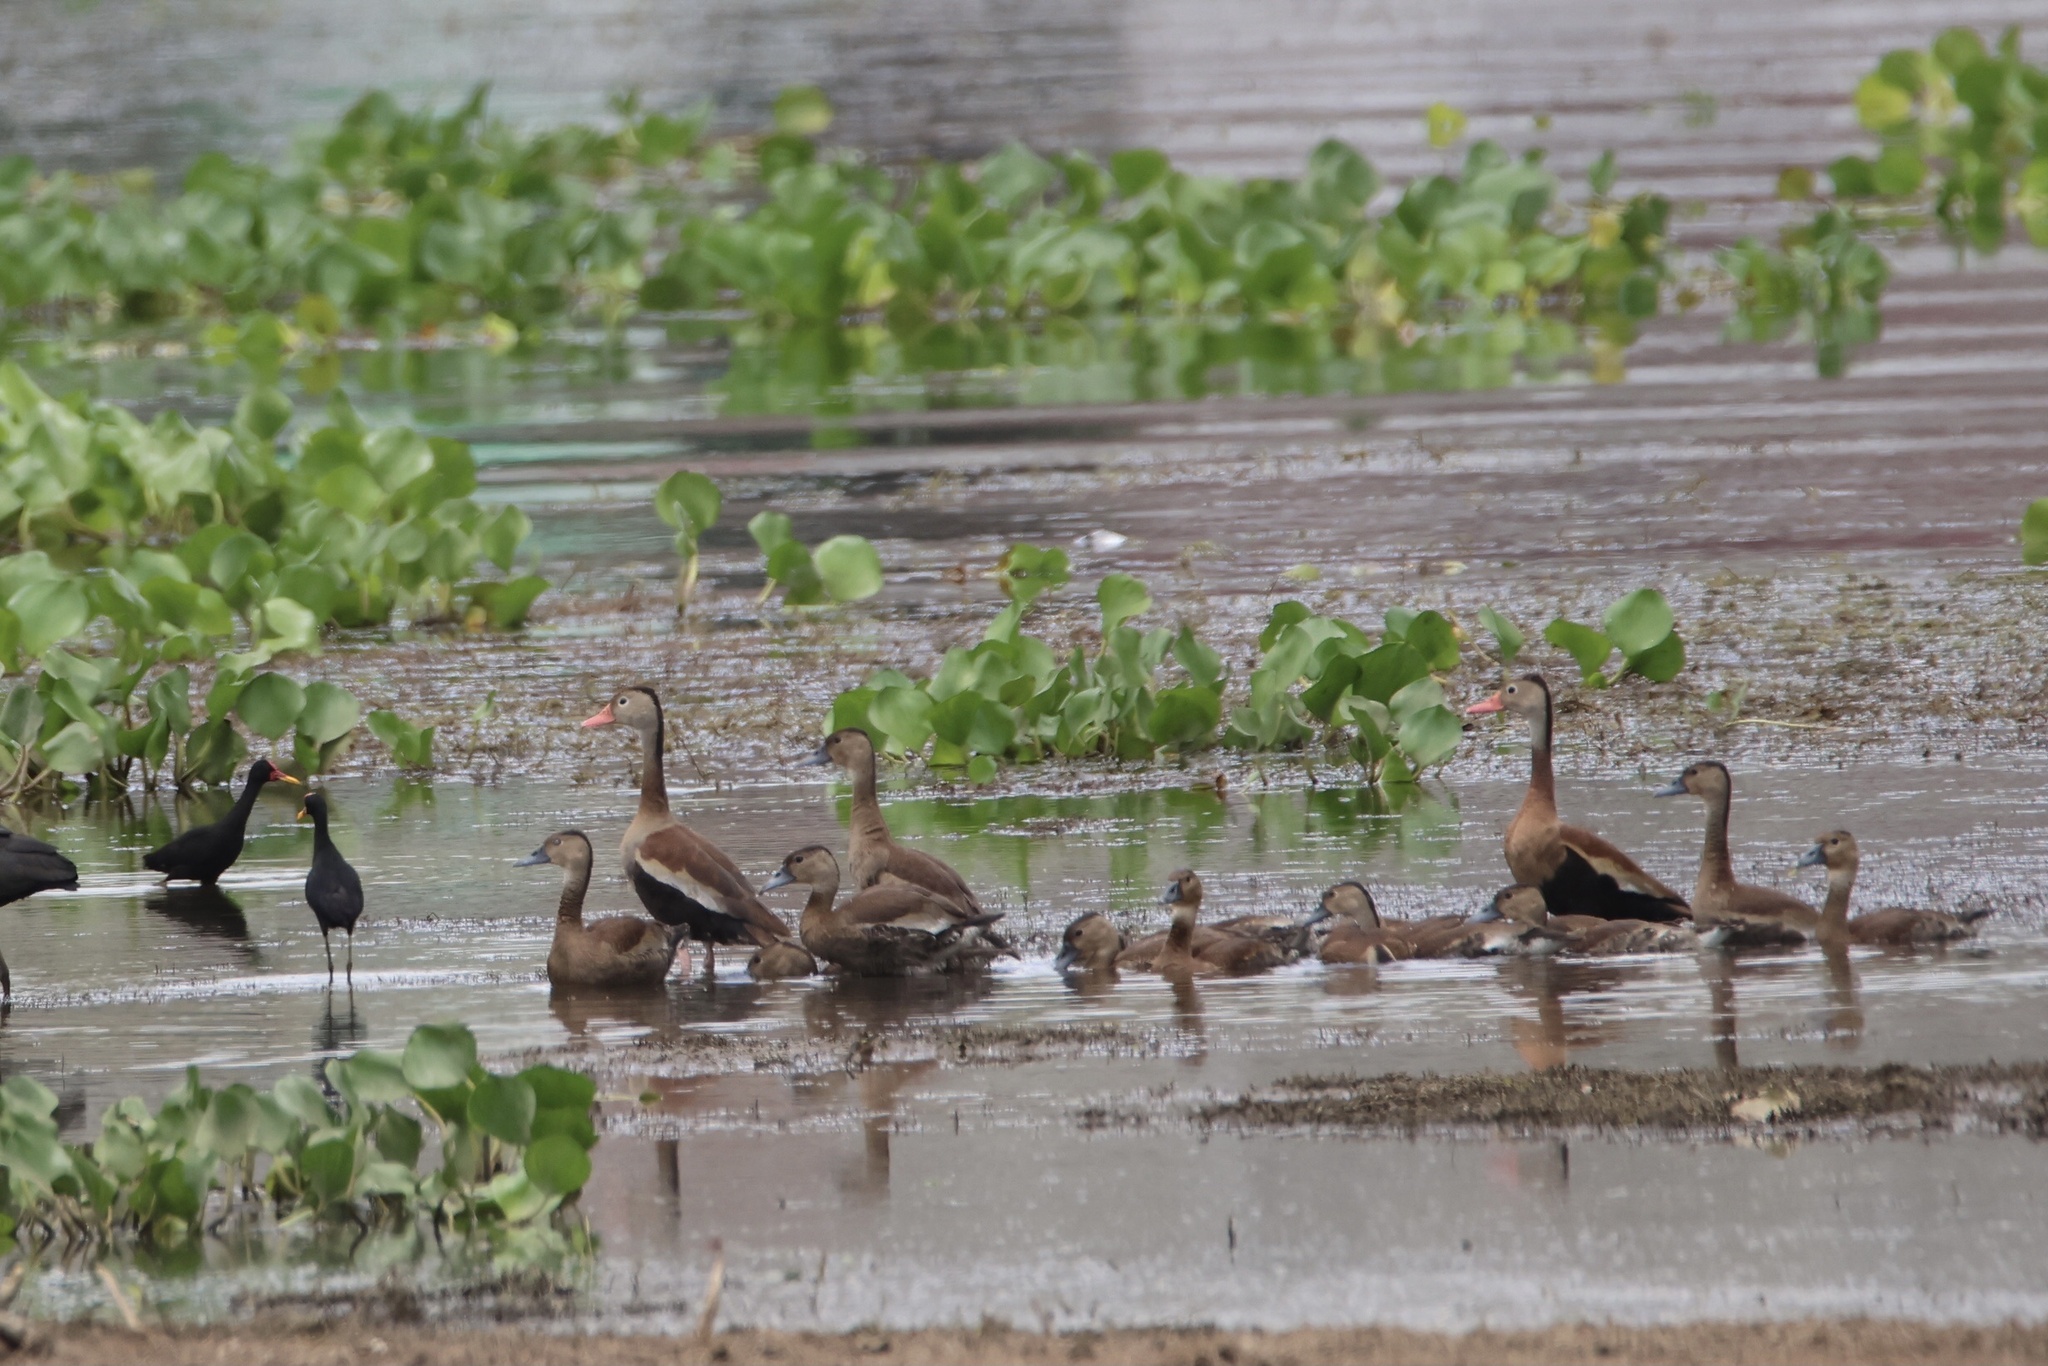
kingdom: Animalia
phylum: Chordata
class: Aves
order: Anseriformes
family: Anatidae
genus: Dendrocygna
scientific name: Dendrocygna autumnalis
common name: Black-bellied whistling duck
